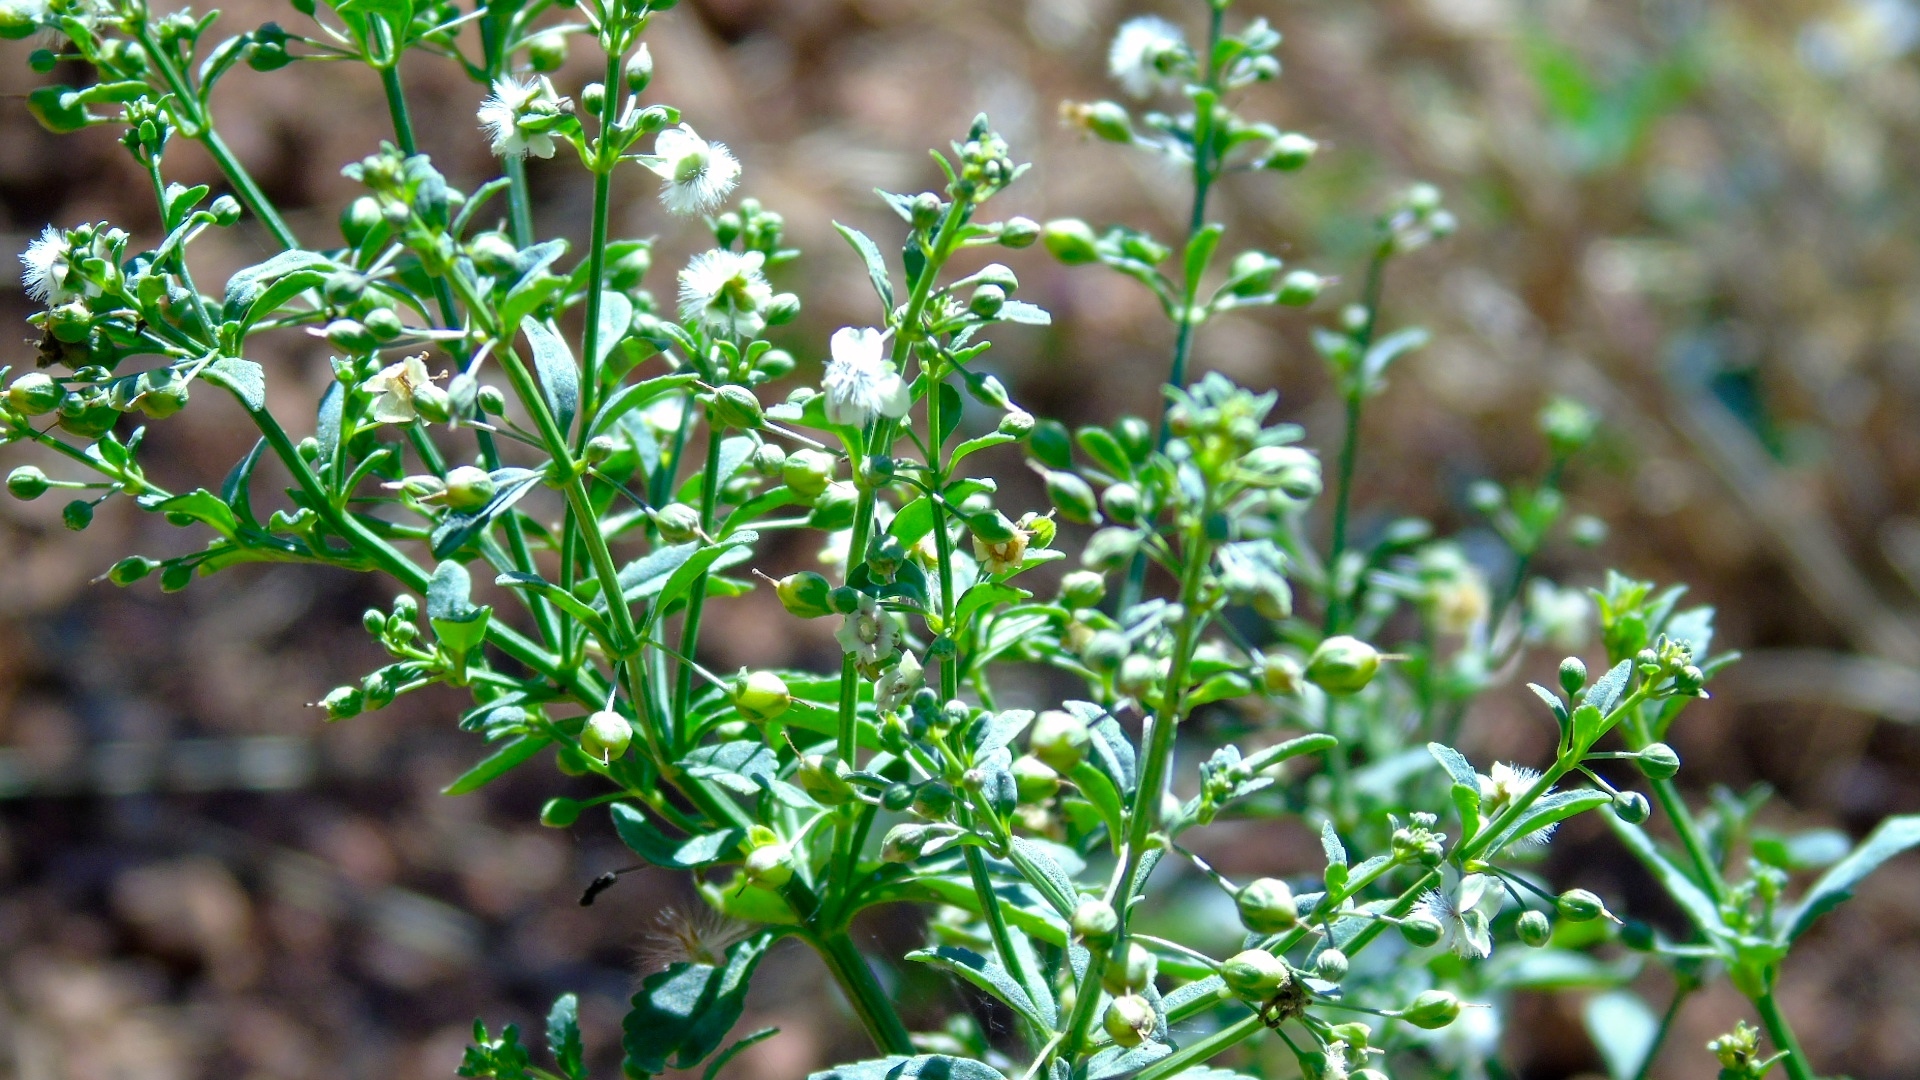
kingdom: Plantae
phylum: Tracheophyta
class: Magnoliopsida
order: Lamiales
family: Plantaginaceae
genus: Scoparia
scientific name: Scoparia dulcis
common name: Scoparia-weed
